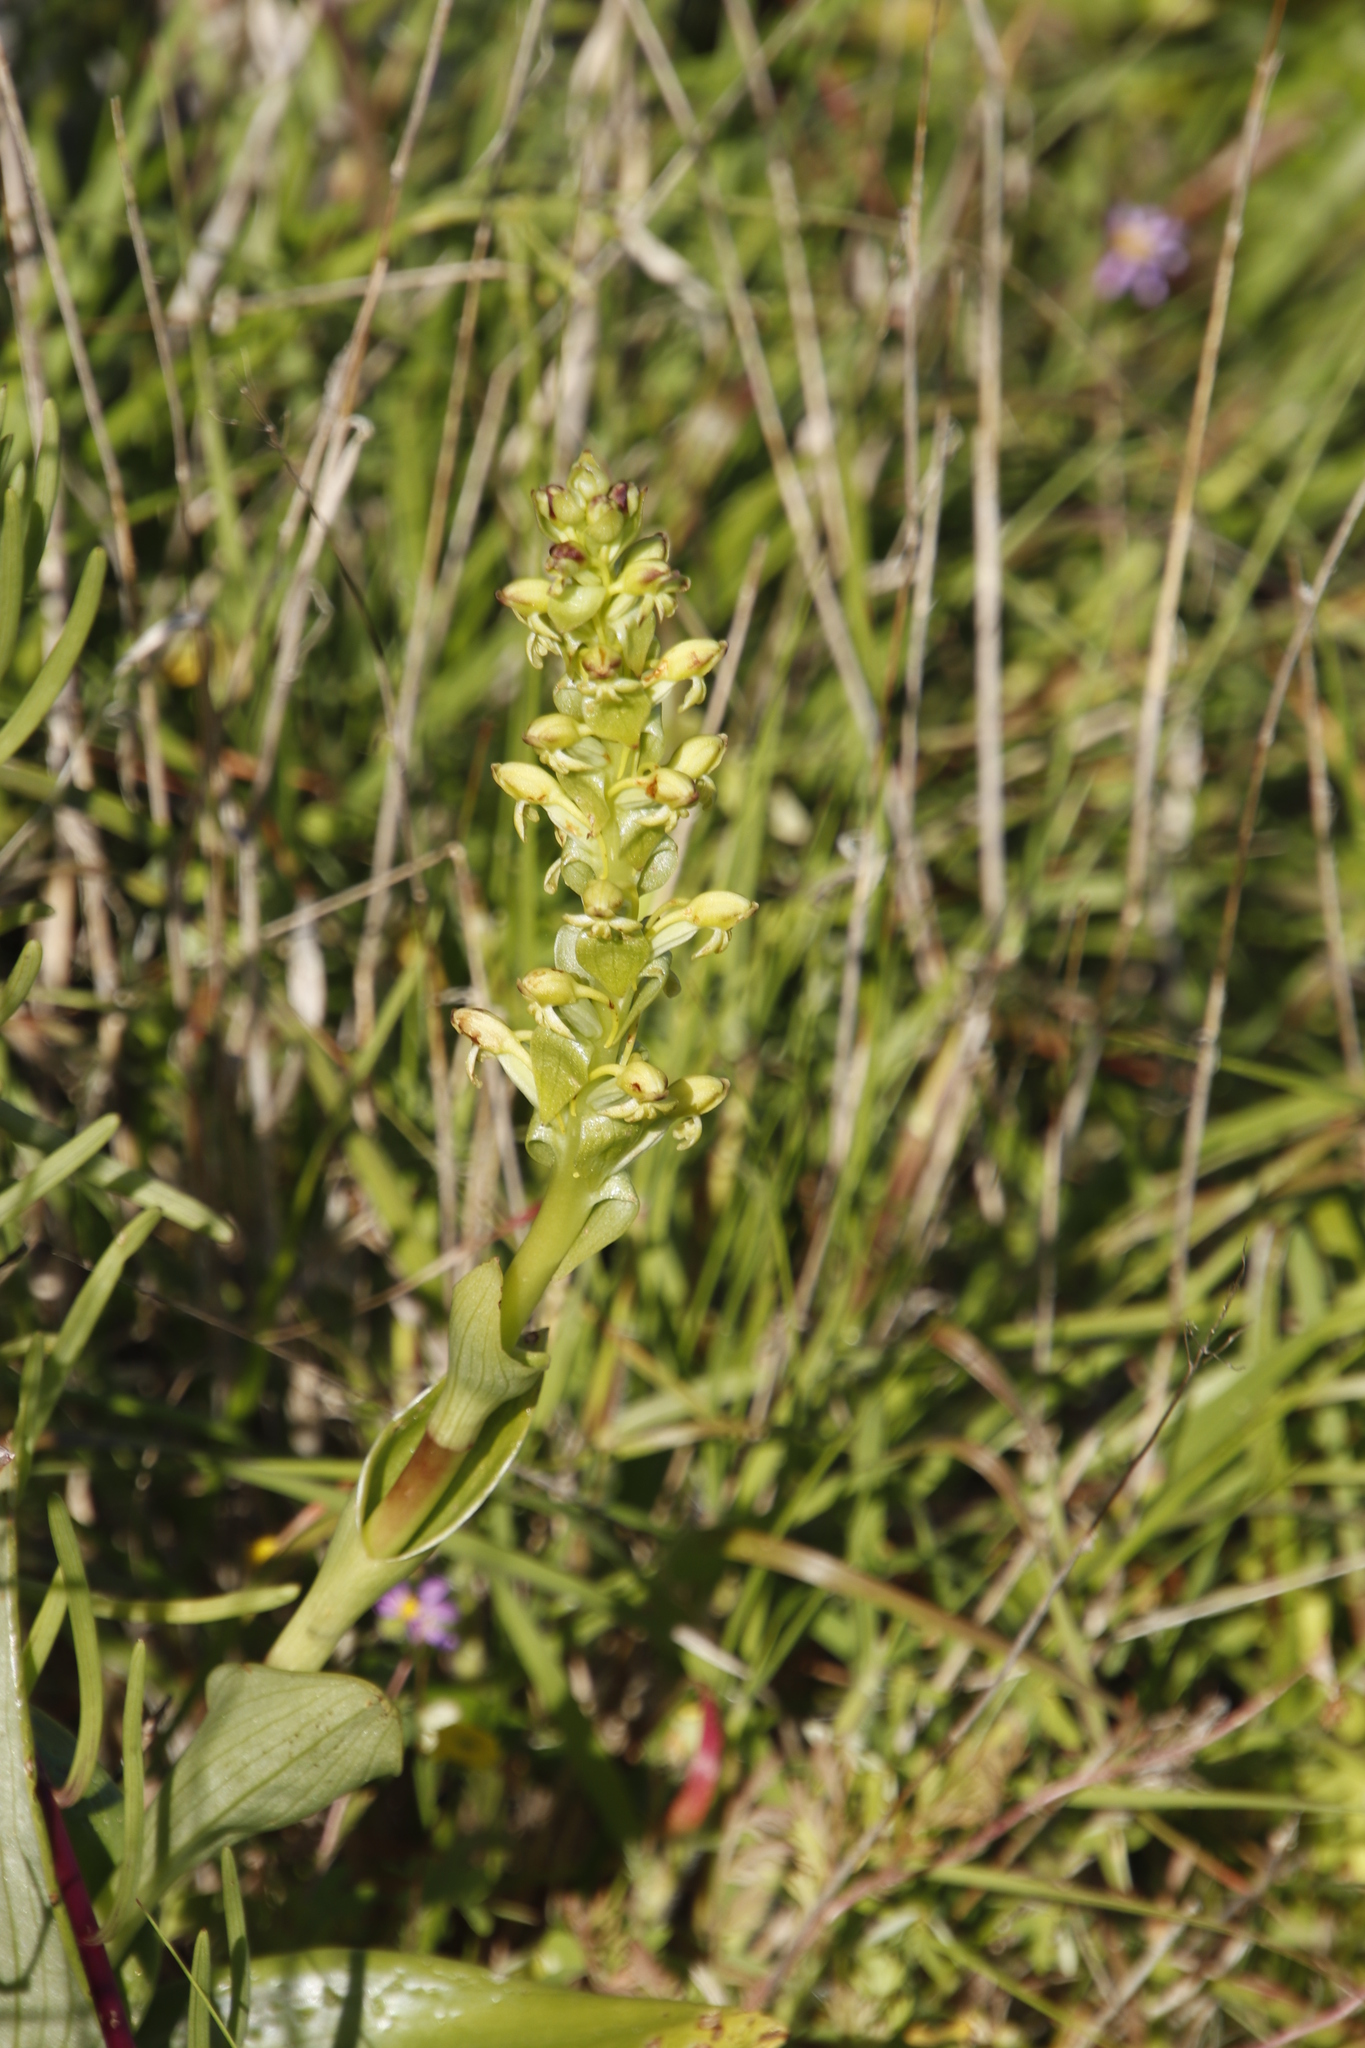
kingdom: Plantae
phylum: Tracheophyta
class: Liliopsida
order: Asparagales
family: Orchidaceae
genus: Satyrium
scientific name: Satyrium odorum
